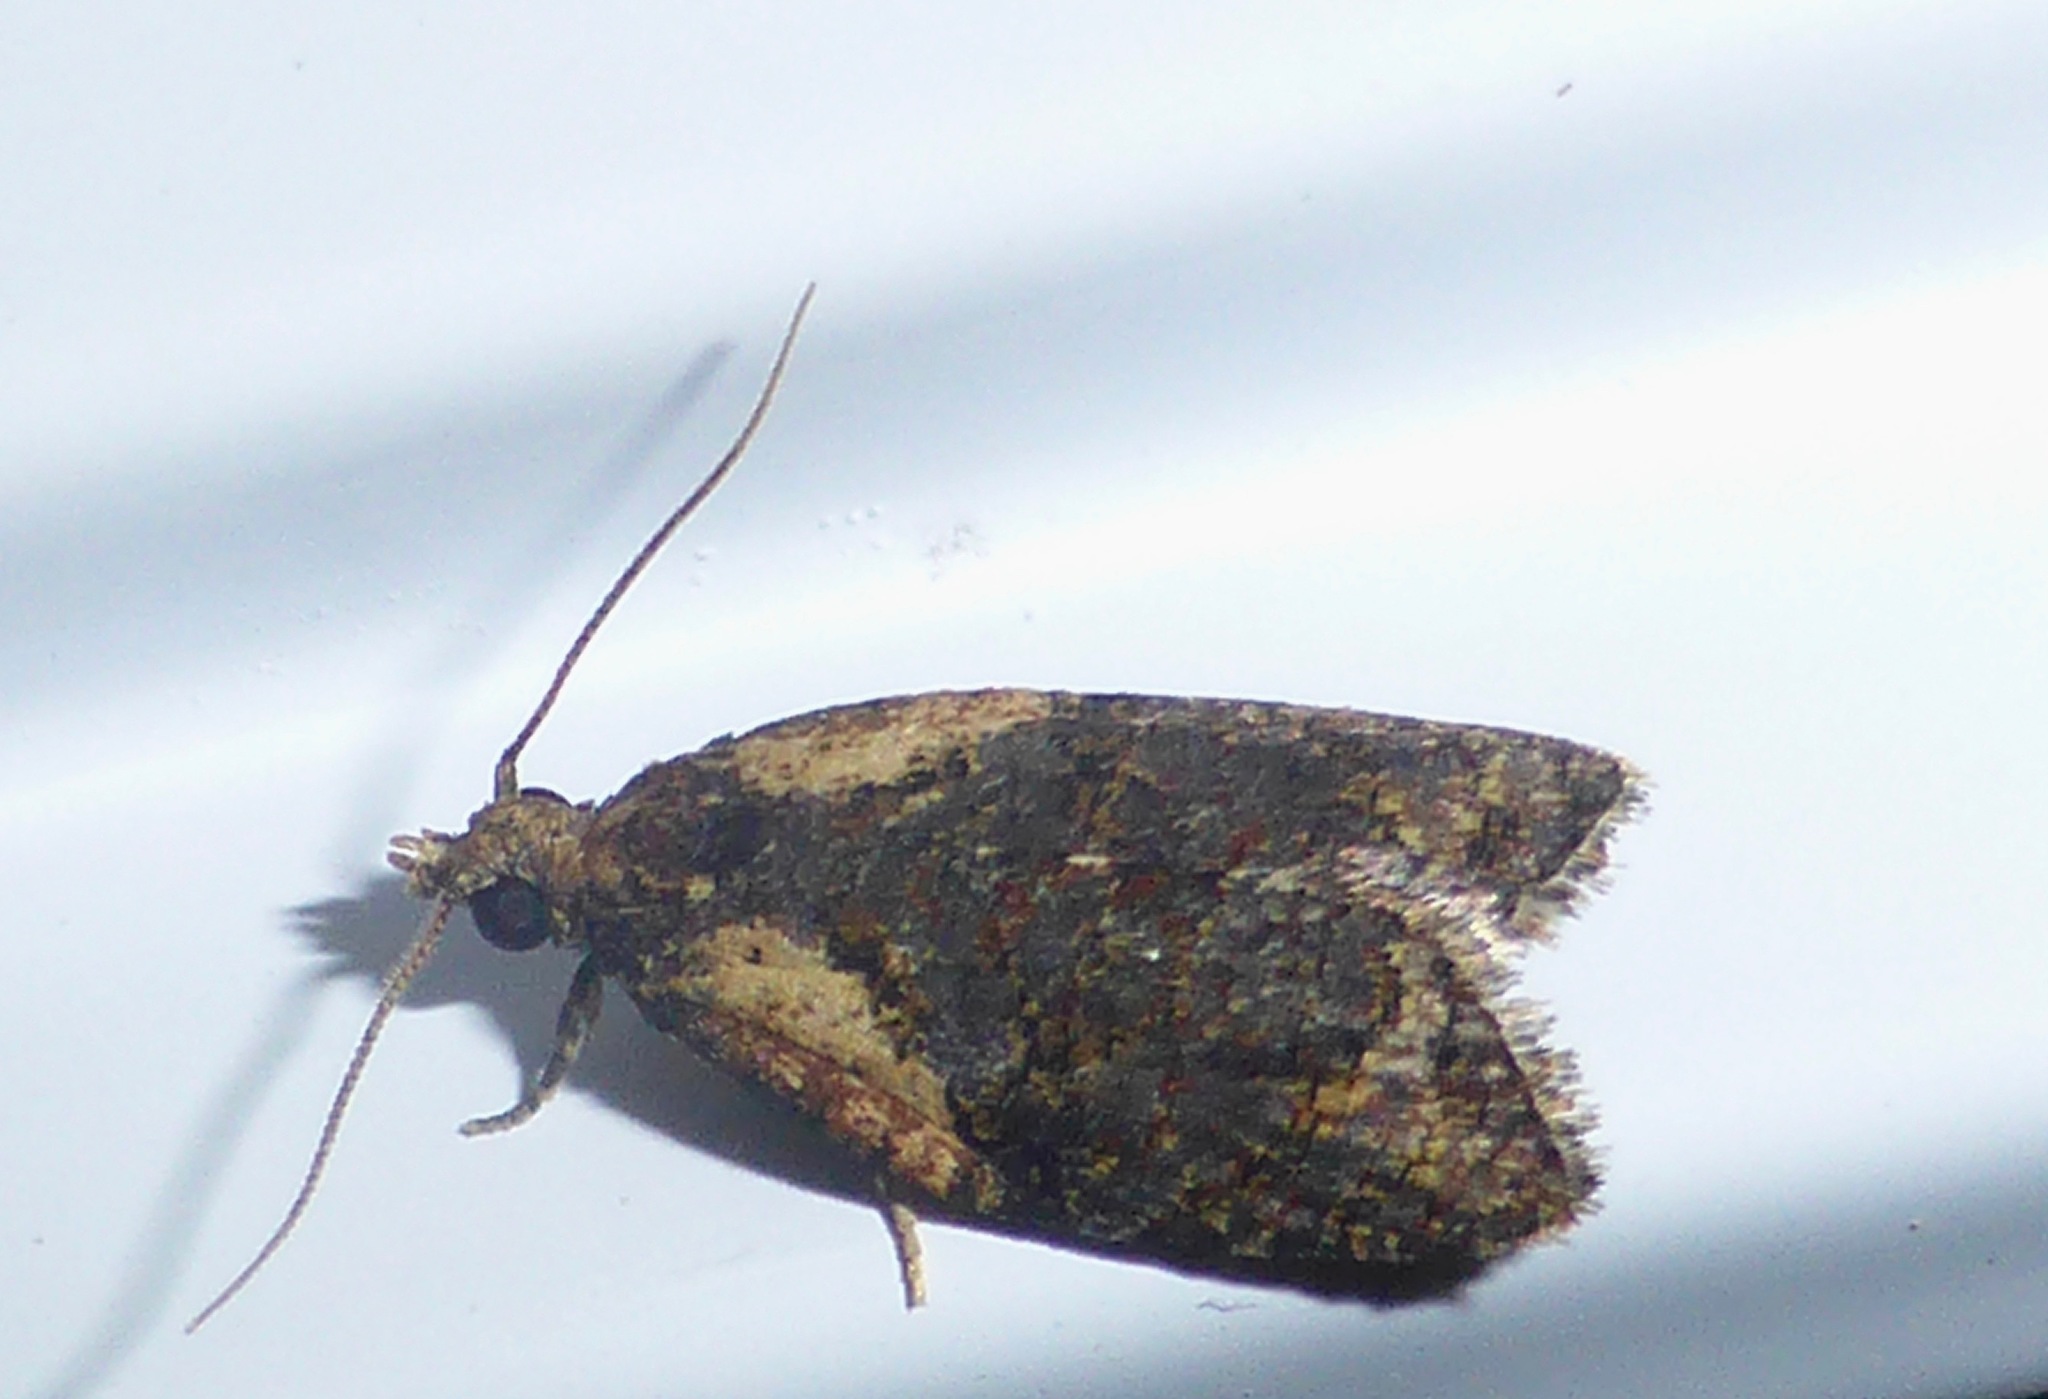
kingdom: Animalia
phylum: Arthropoda
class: Insecta
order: Lepidoptera
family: Tortricidae
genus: Capua
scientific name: Capua intractana
